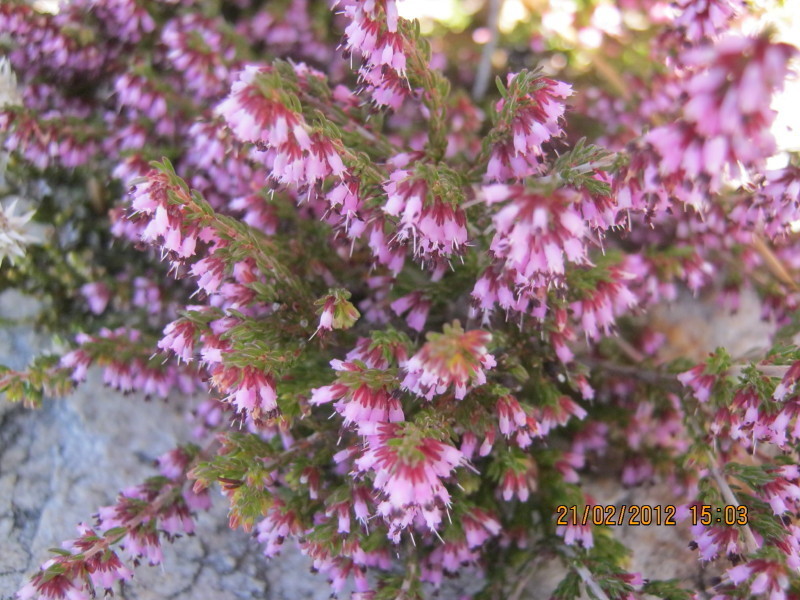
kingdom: Plantae
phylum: Tracheophyta
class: Magnoliopsida
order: Ericales
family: Ericaceae
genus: Erica
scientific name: Erica uberiflora
